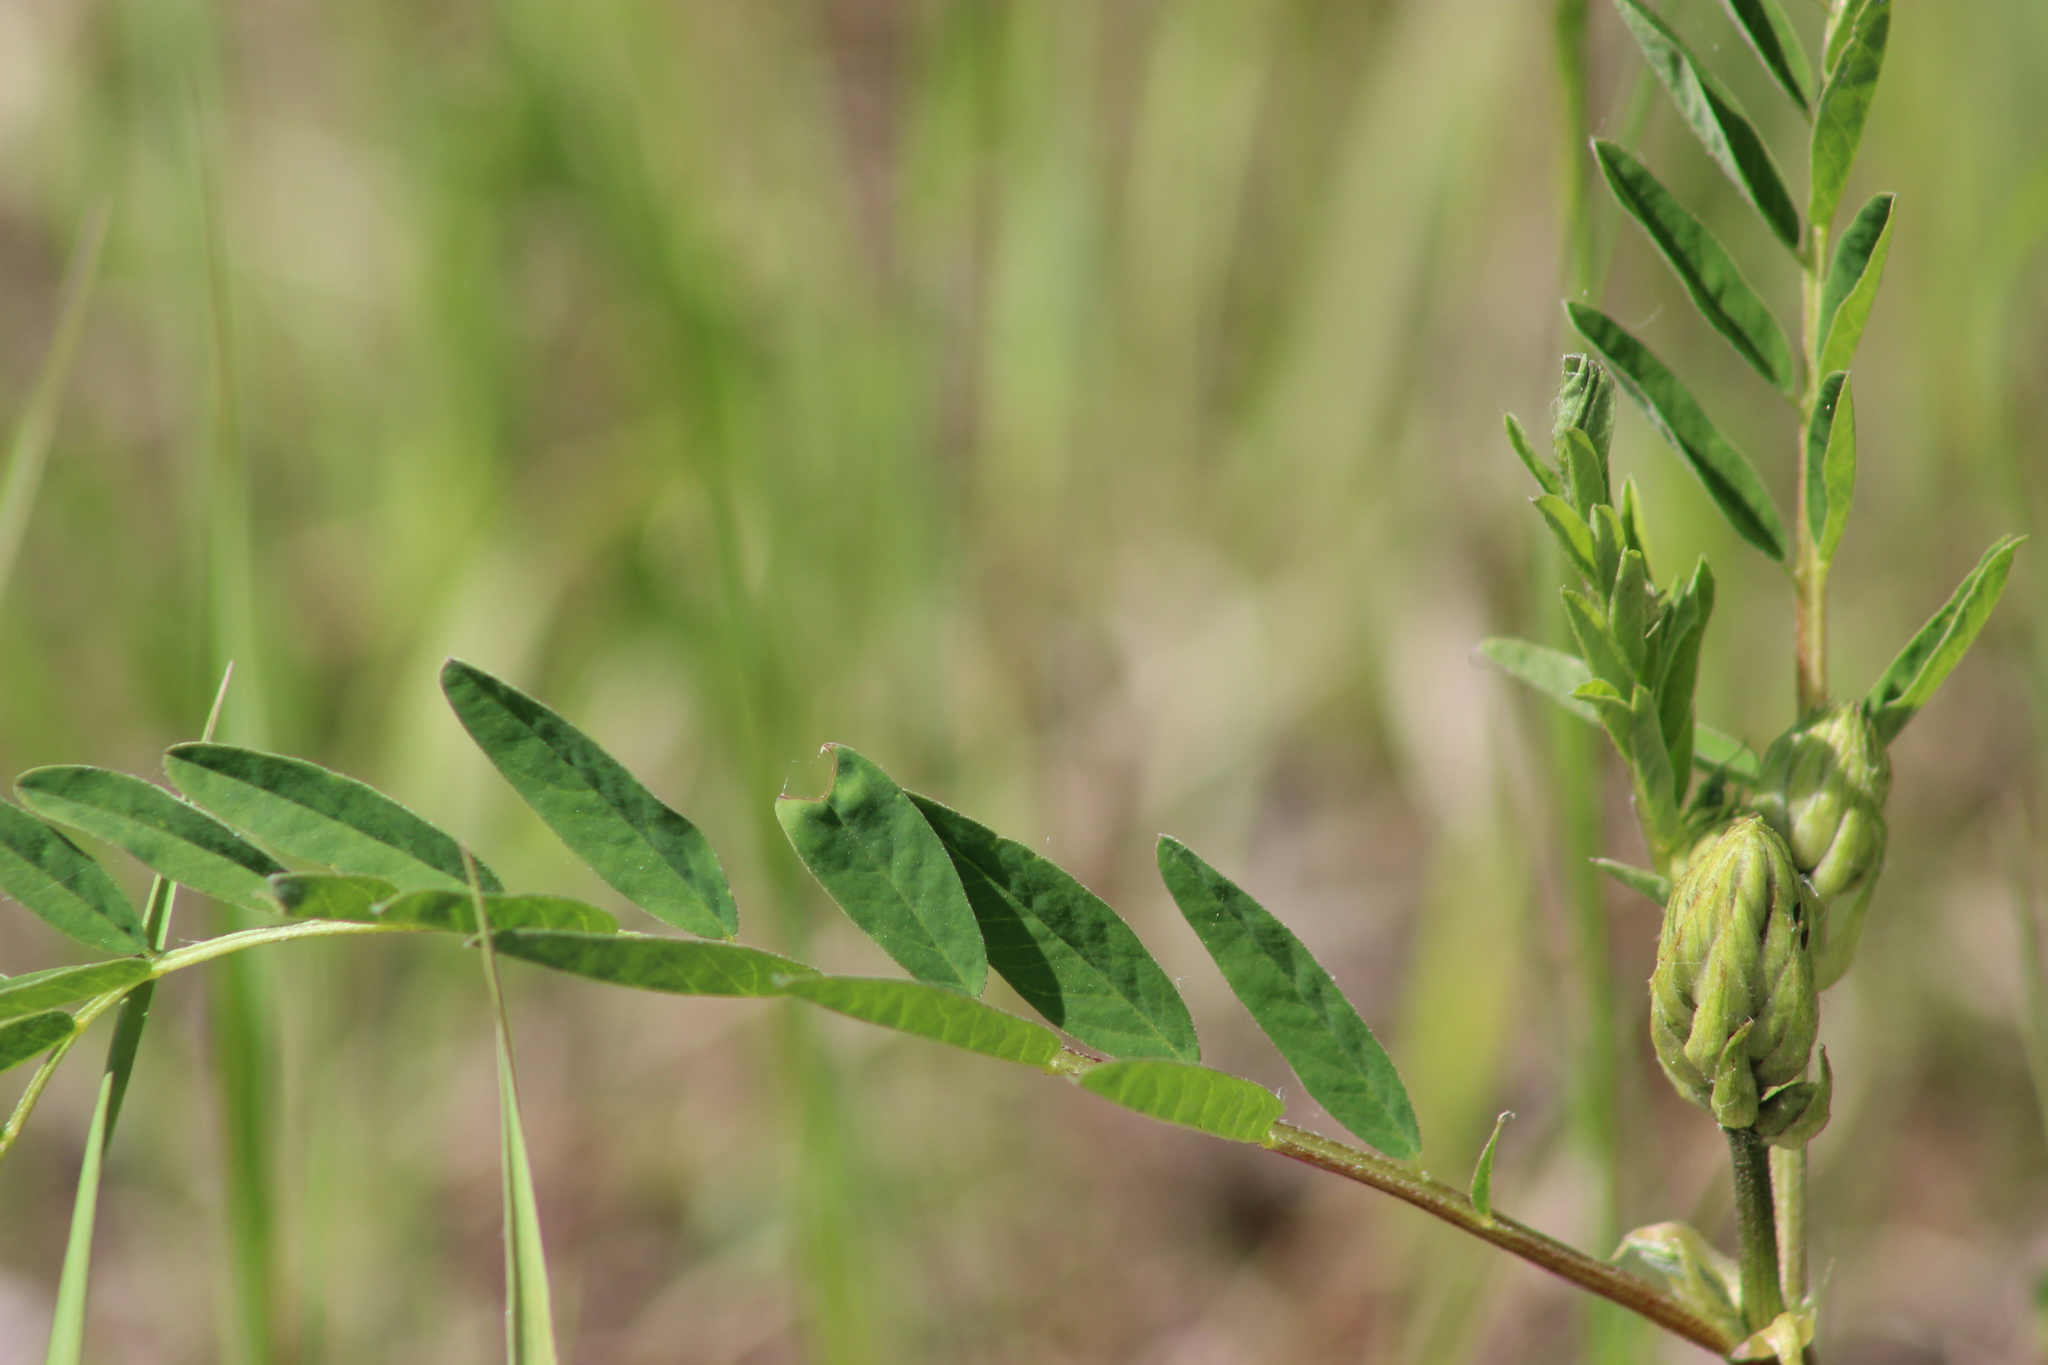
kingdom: Plantae
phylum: Tracheophyta
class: Magnoliopsida
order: Fabales
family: Fabaceae
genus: Astragalus
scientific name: Astragalus uliginosus
